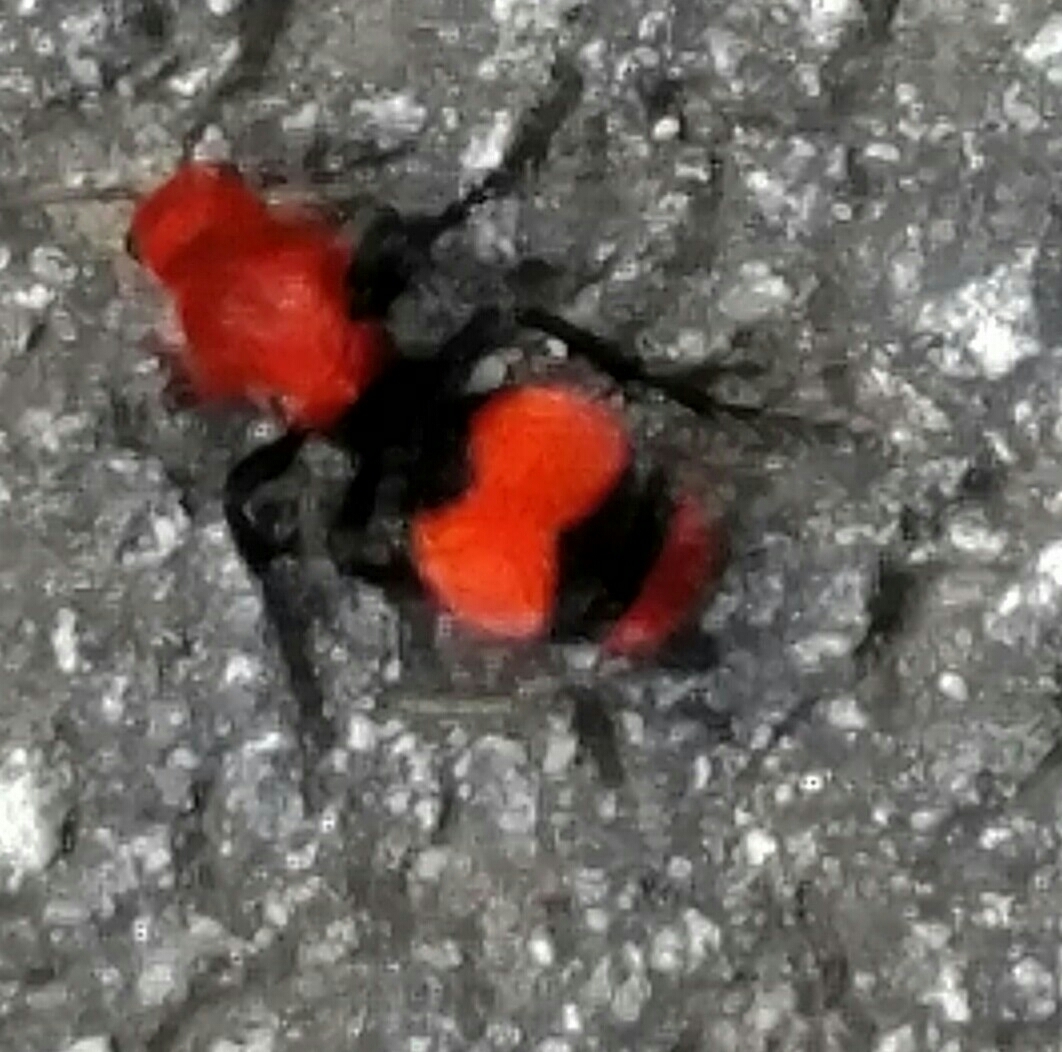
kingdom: Animalia
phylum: Arthropoda
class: Insecta
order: Hymenoptera
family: Mutillidae
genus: Dasymutilla
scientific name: Dasymutilla occidentalis
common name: Common eastern velvet ant
